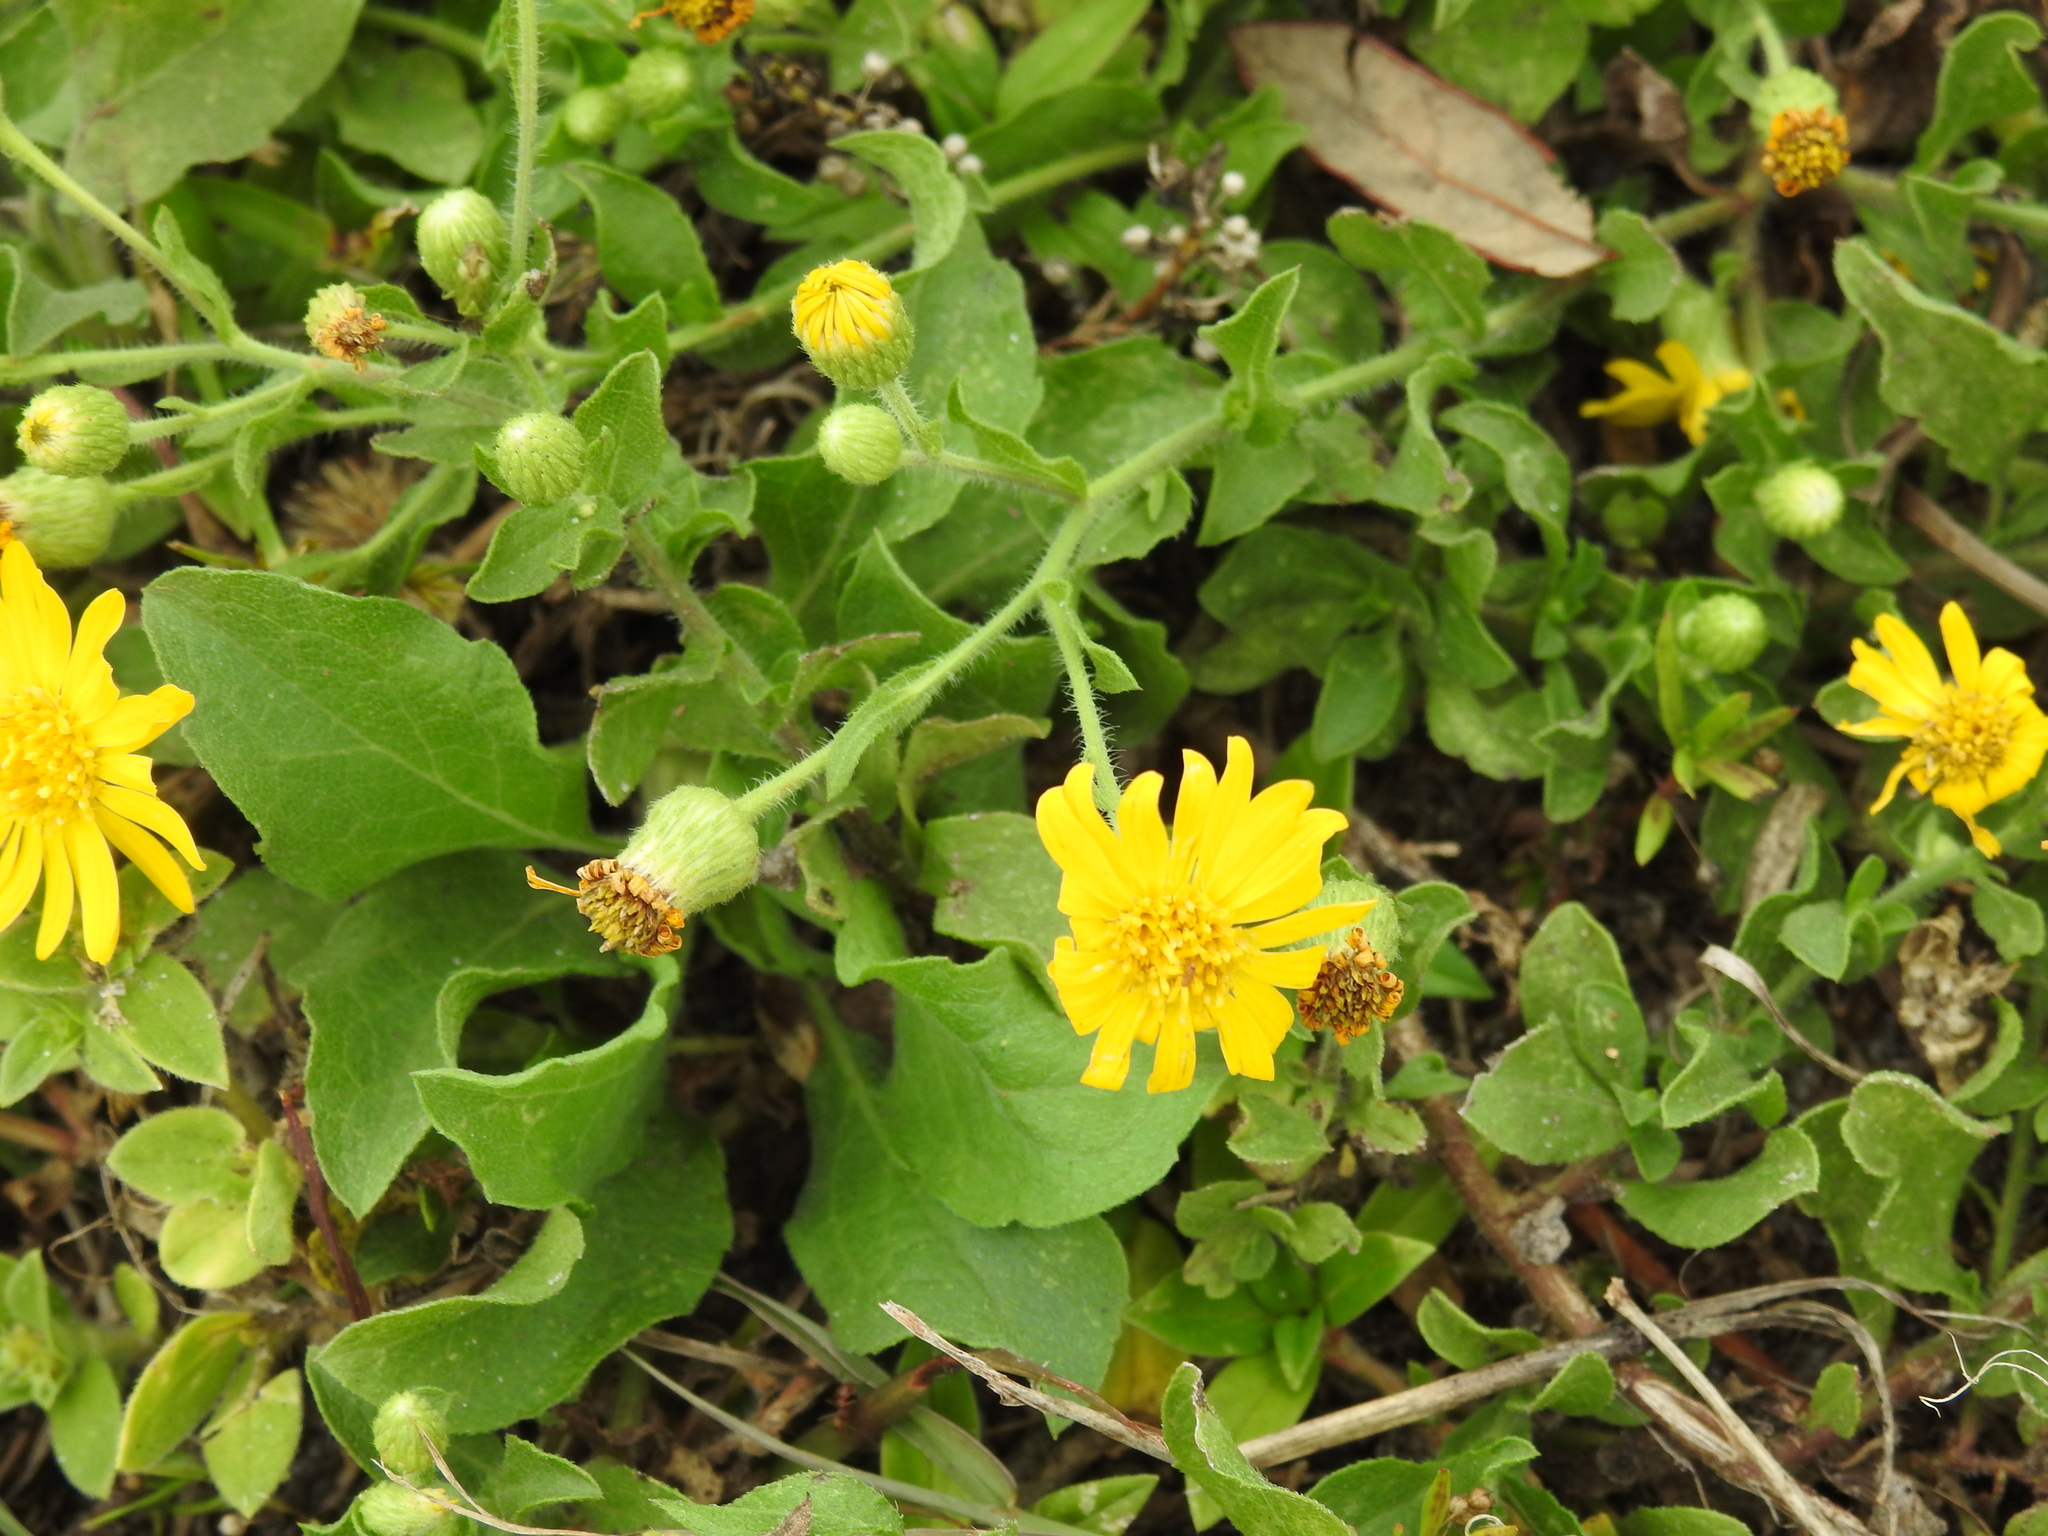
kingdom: Plantae
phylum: Tracheophyta
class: Magnoliopsida
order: Asterales
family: Asteraceae
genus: Heterotheca
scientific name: Heterotheca subaxillaris
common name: Camphorweed
